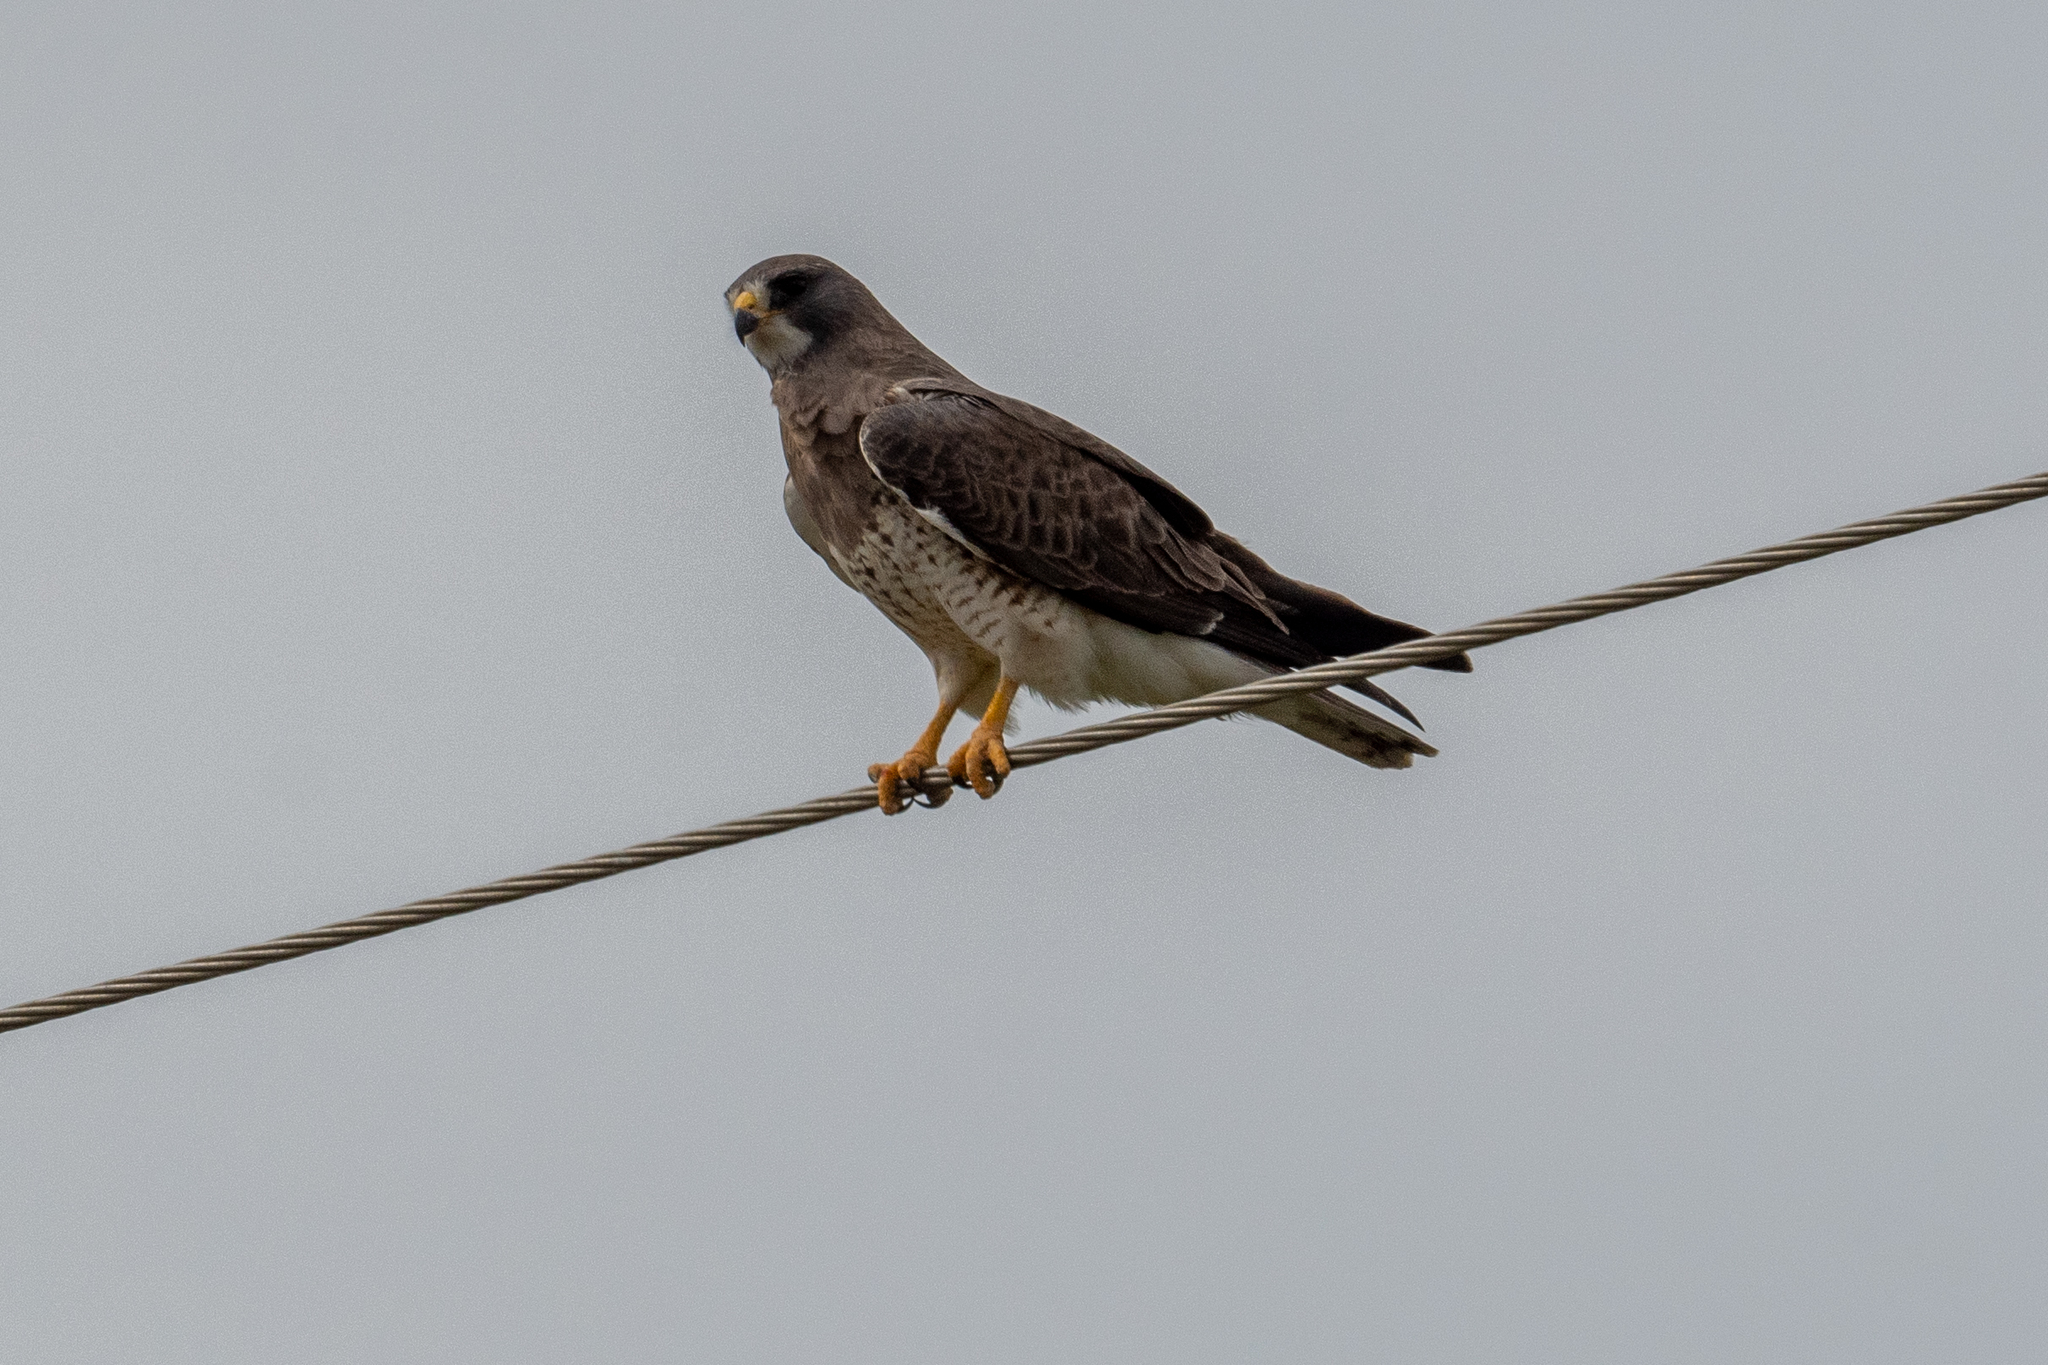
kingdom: Animalia
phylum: Chordata
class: Aves
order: Accipitriformes
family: Accipitridae
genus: Buteo
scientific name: Buteo swainsoni
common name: Swainson's hawk
